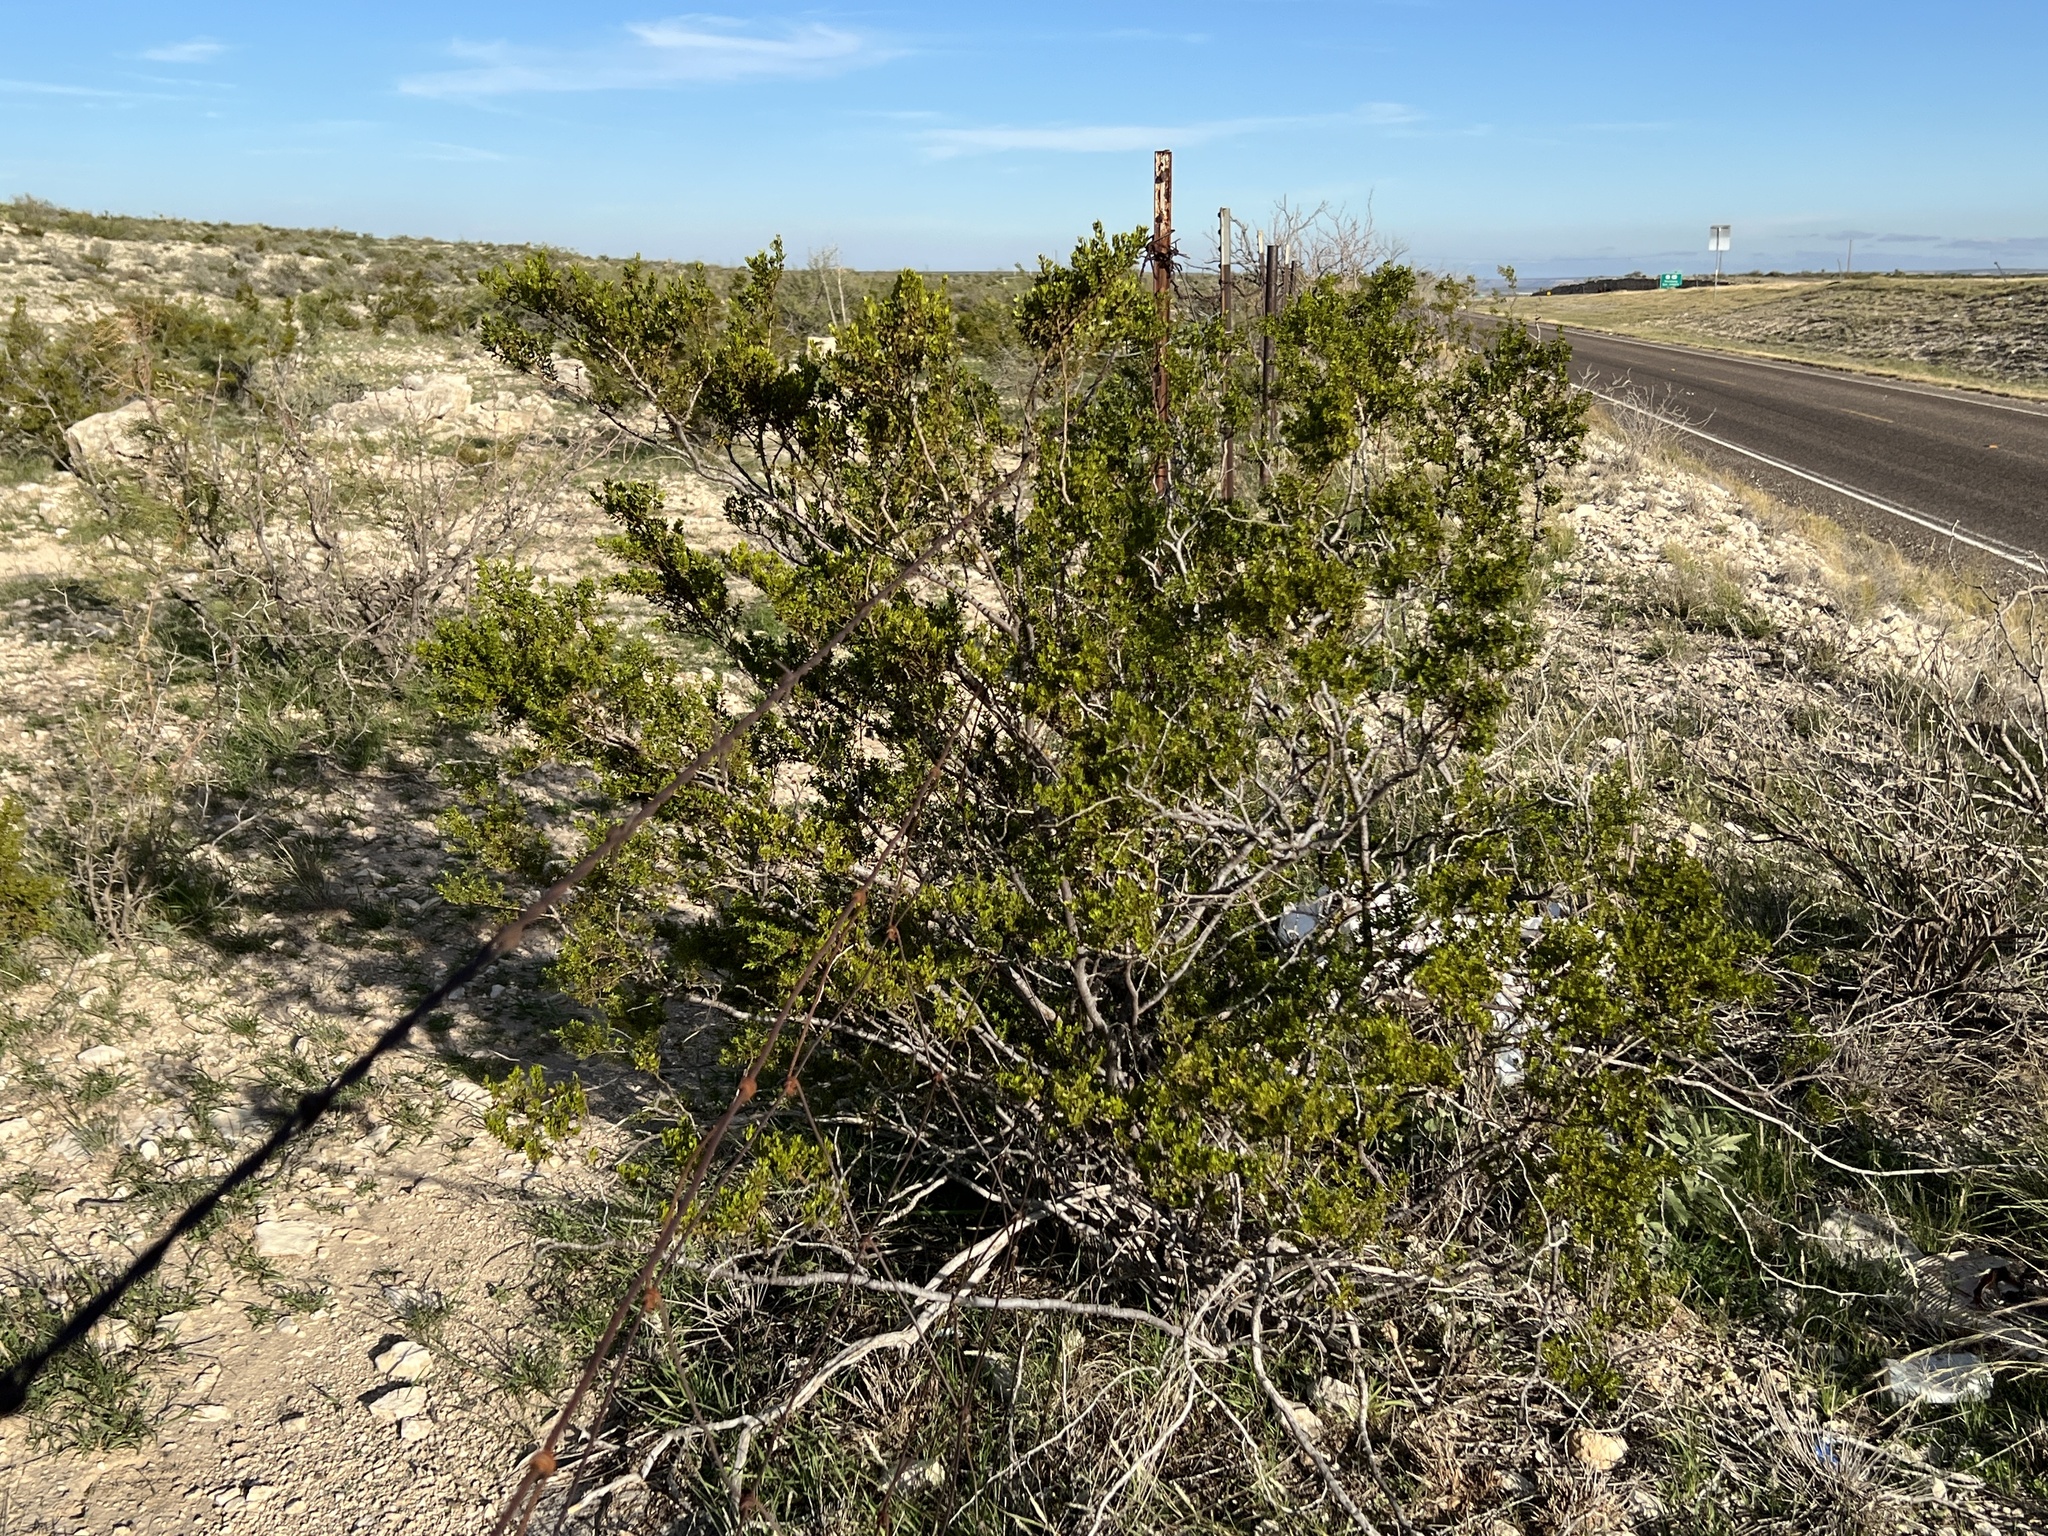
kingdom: Plantae
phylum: Tracheophyta
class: Magnoliopsida
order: Zygophyllales
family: Zygophyllaceae
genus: Larrea
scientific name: Larrea tridentata
